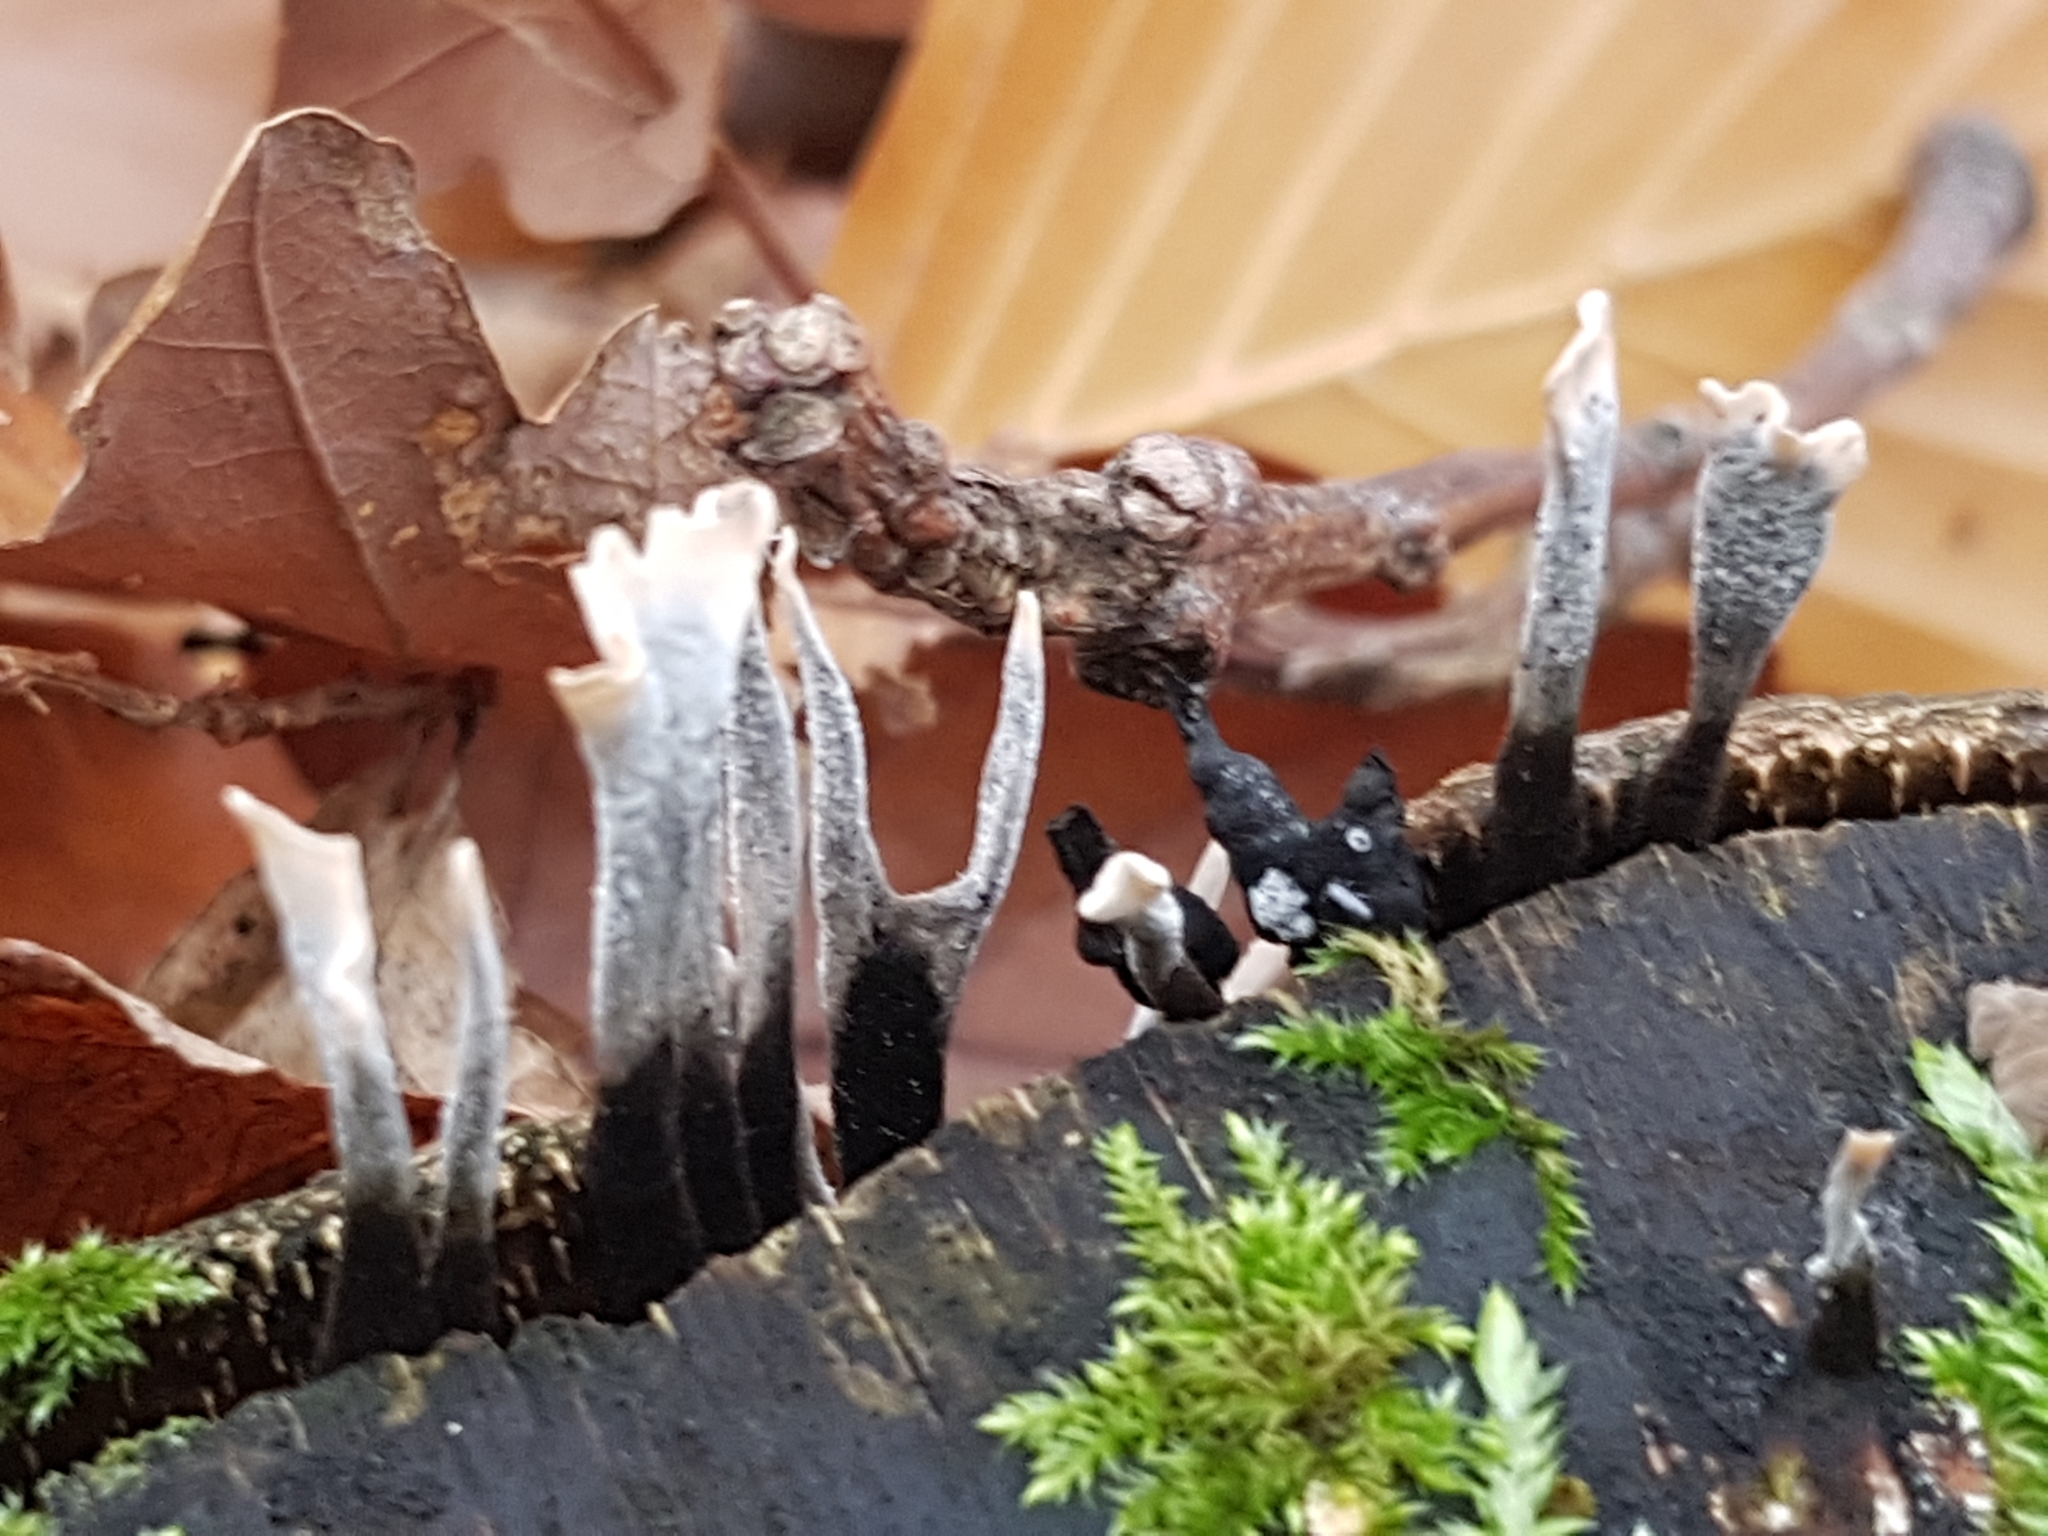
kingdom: Fungi
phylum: Ascomycota
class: Sordariomycetes
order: Xylariales
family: Xylariaceae
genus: Xylaria
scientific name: Xylaria hypoxylon
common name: Candle-snuff fungus
